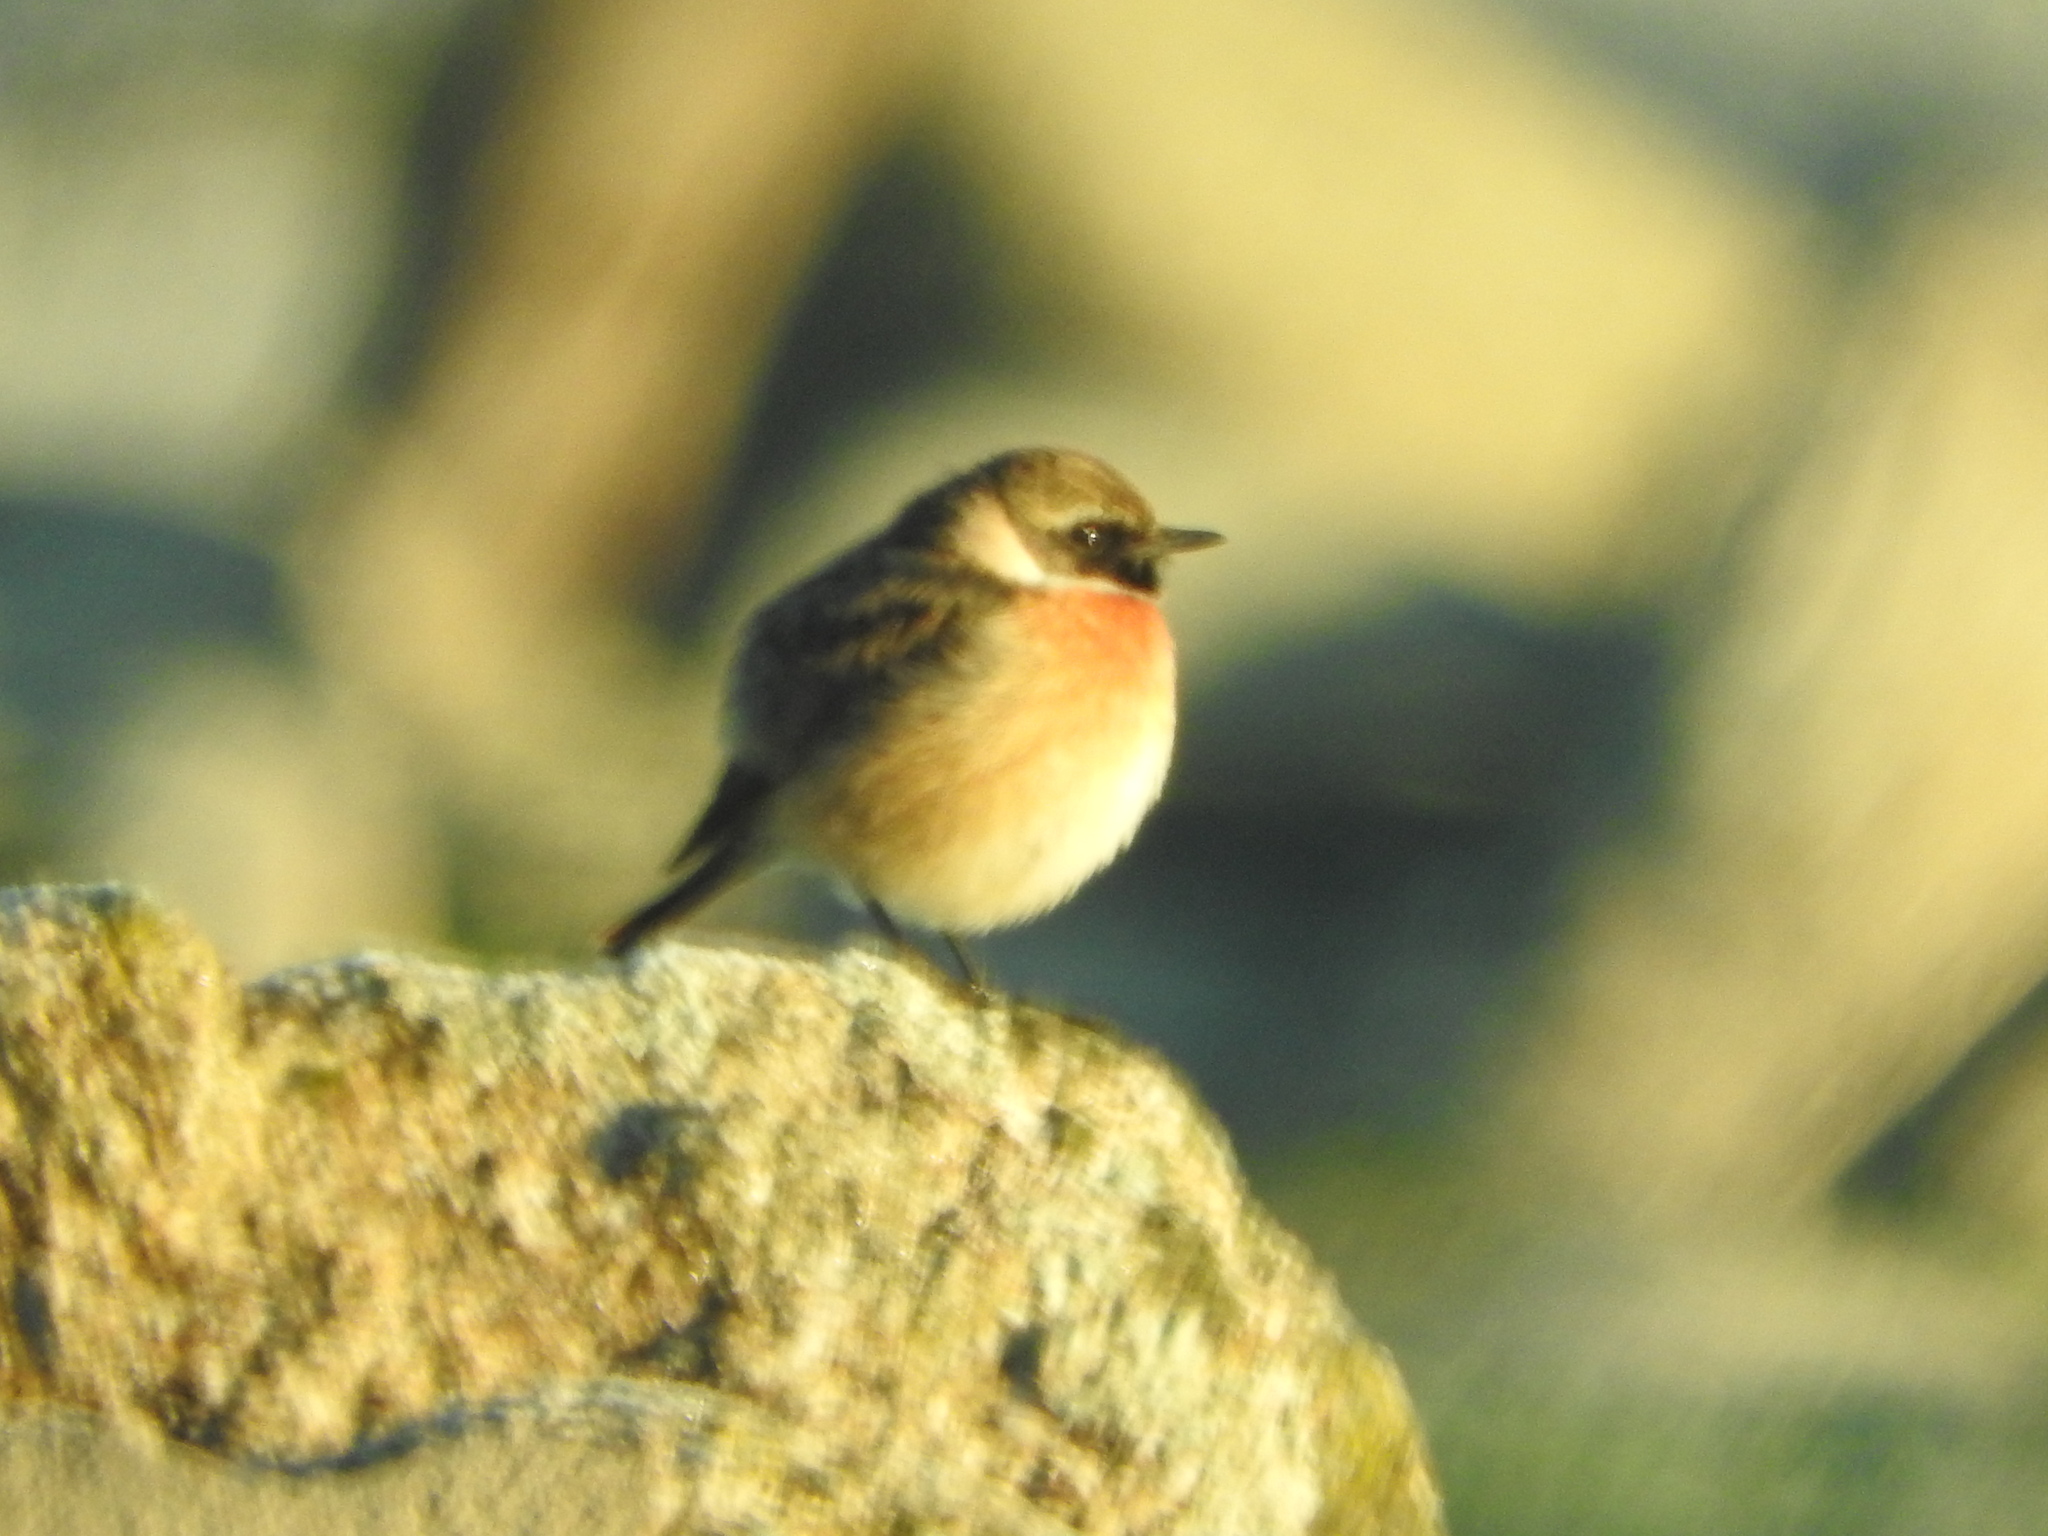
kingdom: Animalia
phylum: Chordata
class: Aves
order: Passeriformes
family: Muscicapidae
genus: Saxicola
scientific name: Saxicola rubicola
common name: European stonechat
